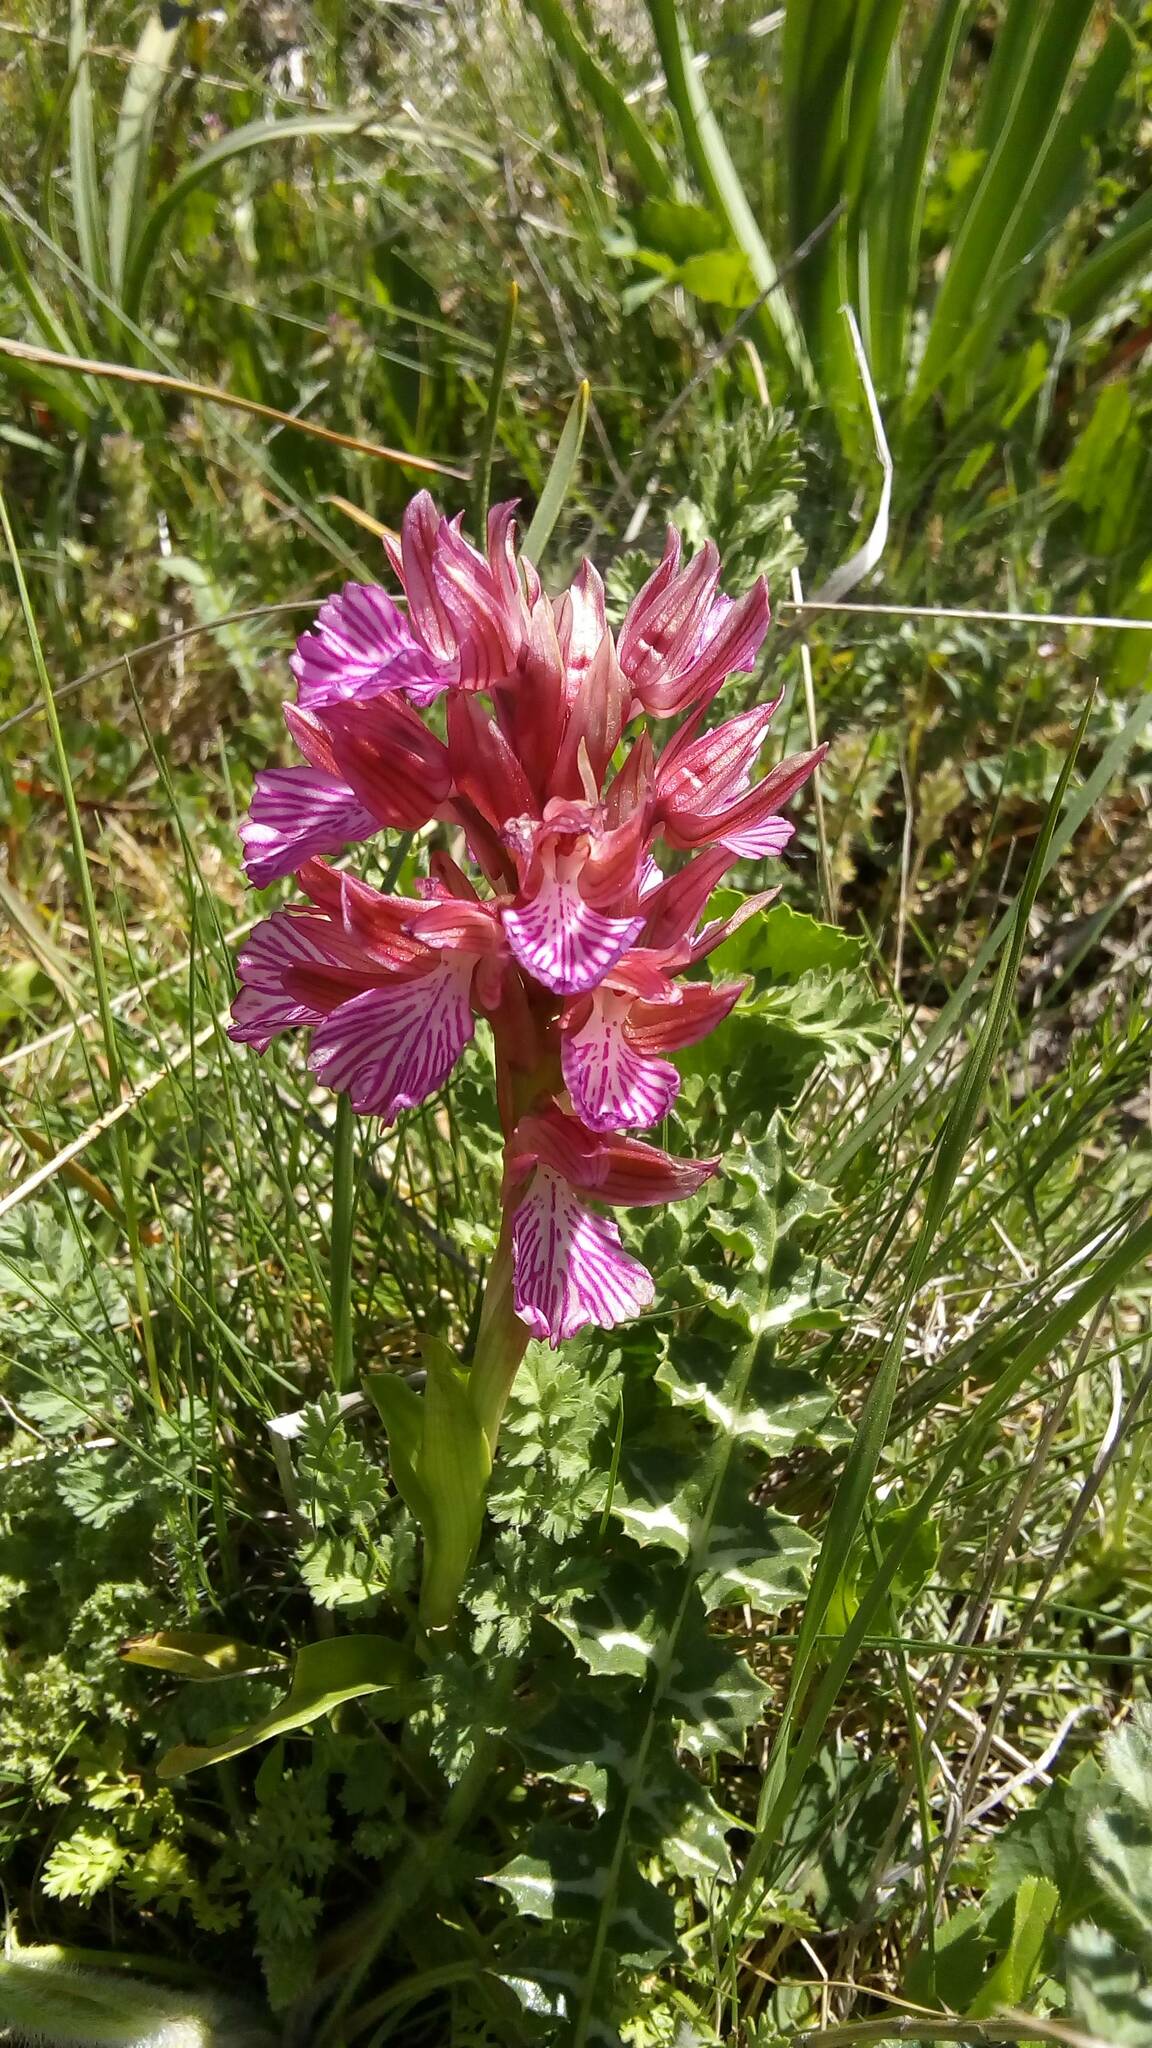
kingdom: Plantae
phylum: Tracheophyta
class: Liliopsida
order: Asparagales
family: Orchidaceae
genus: Anacamptis
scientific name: Anacamptis papilionacea
